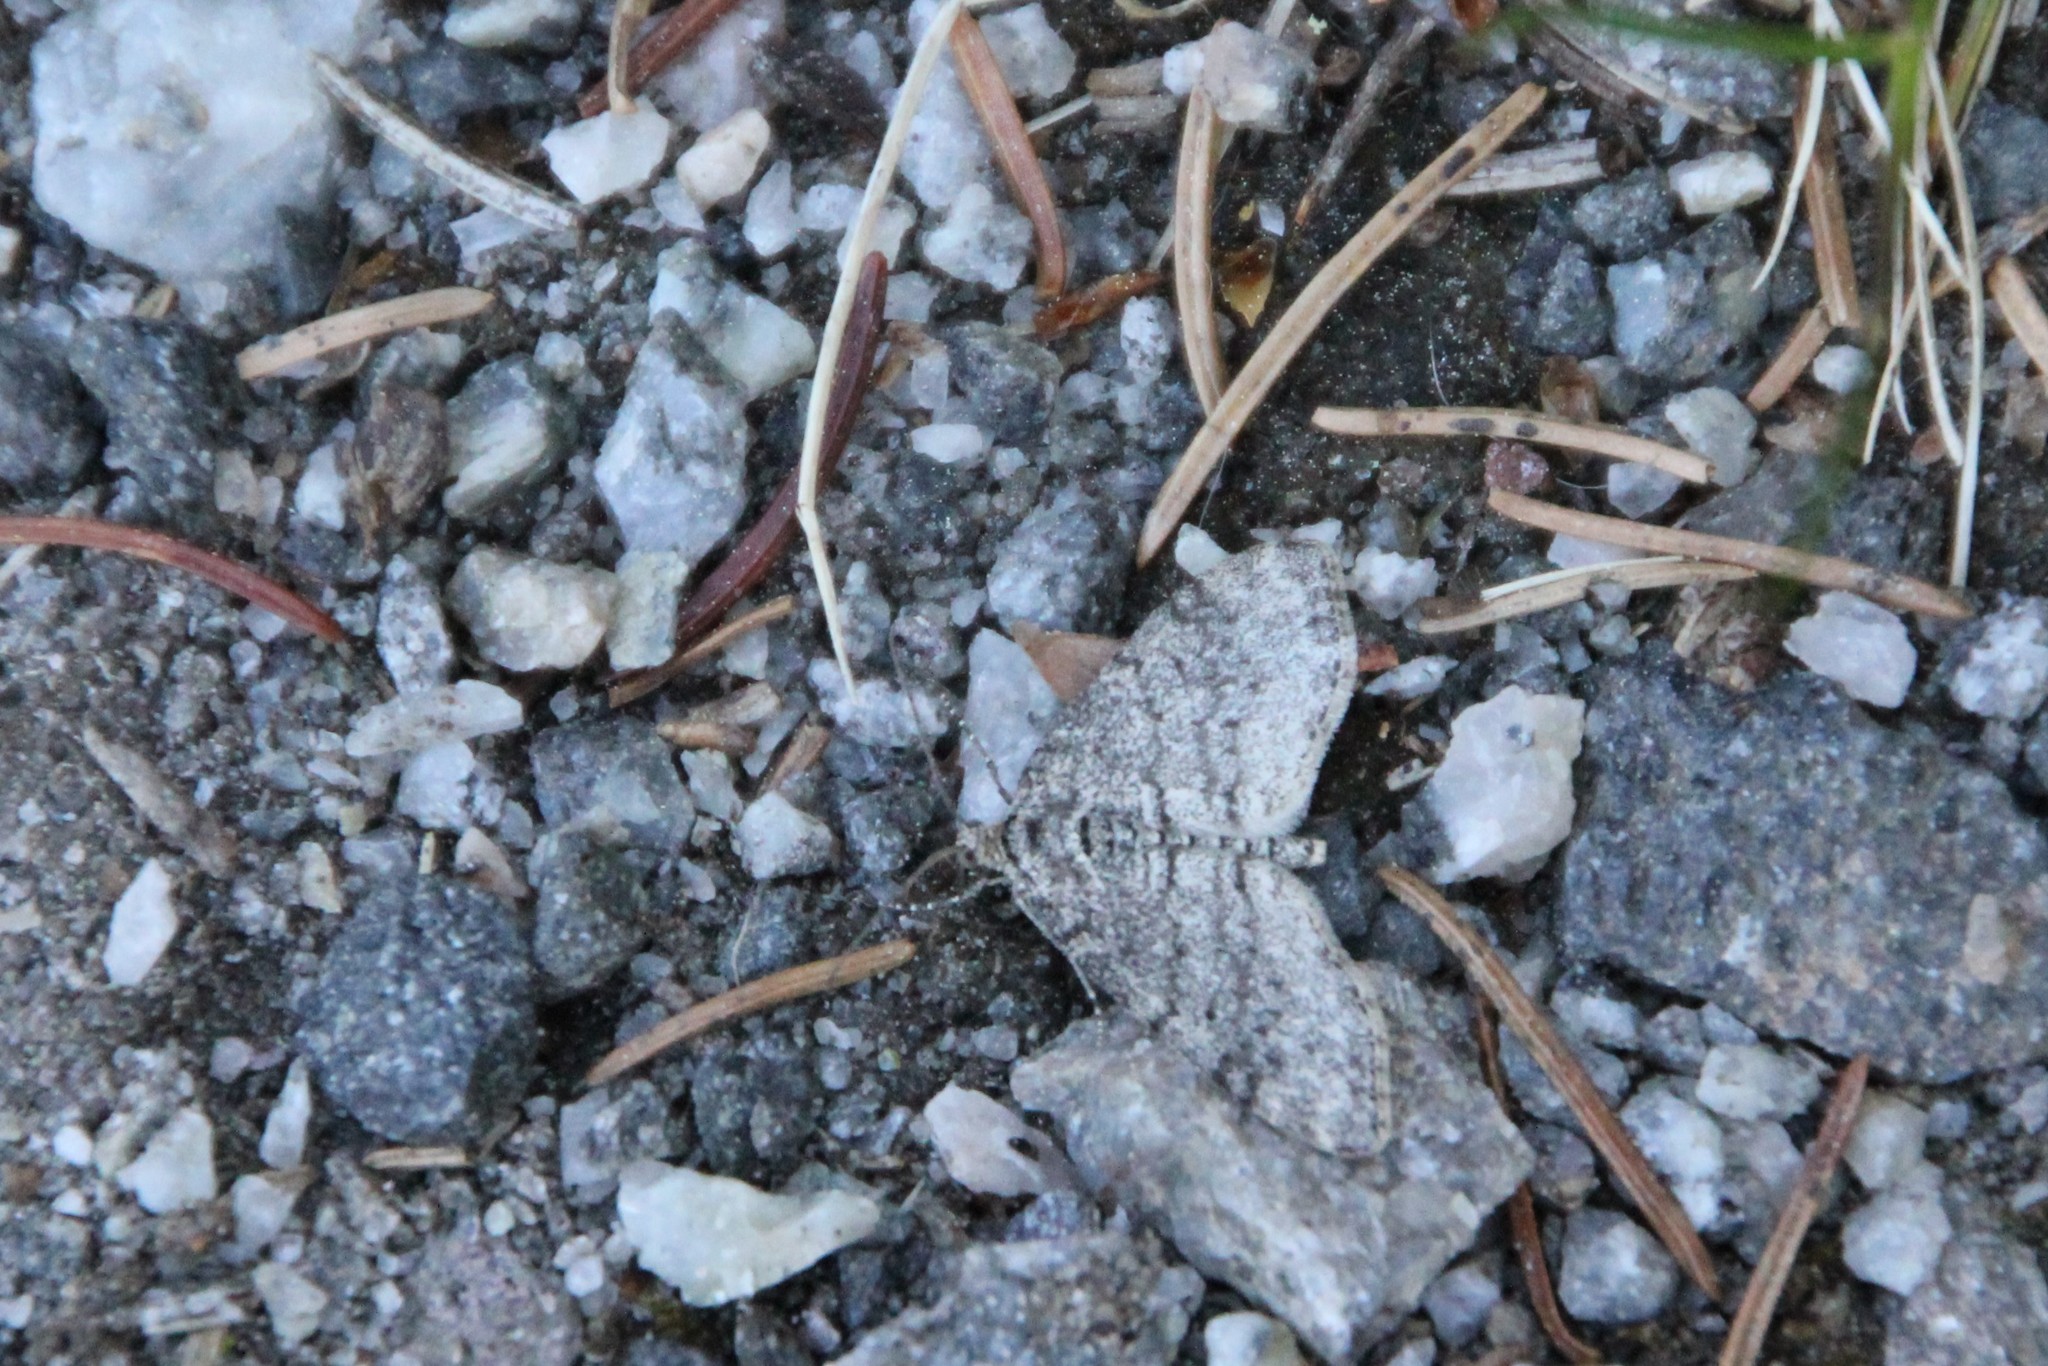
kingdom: Animalia
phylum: Arthropoda
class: Insecta
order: Lepidoptera
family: Geometridae
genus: Trichopteryx
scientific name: Trichopteryx carpinata
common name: Early tooth-striped
